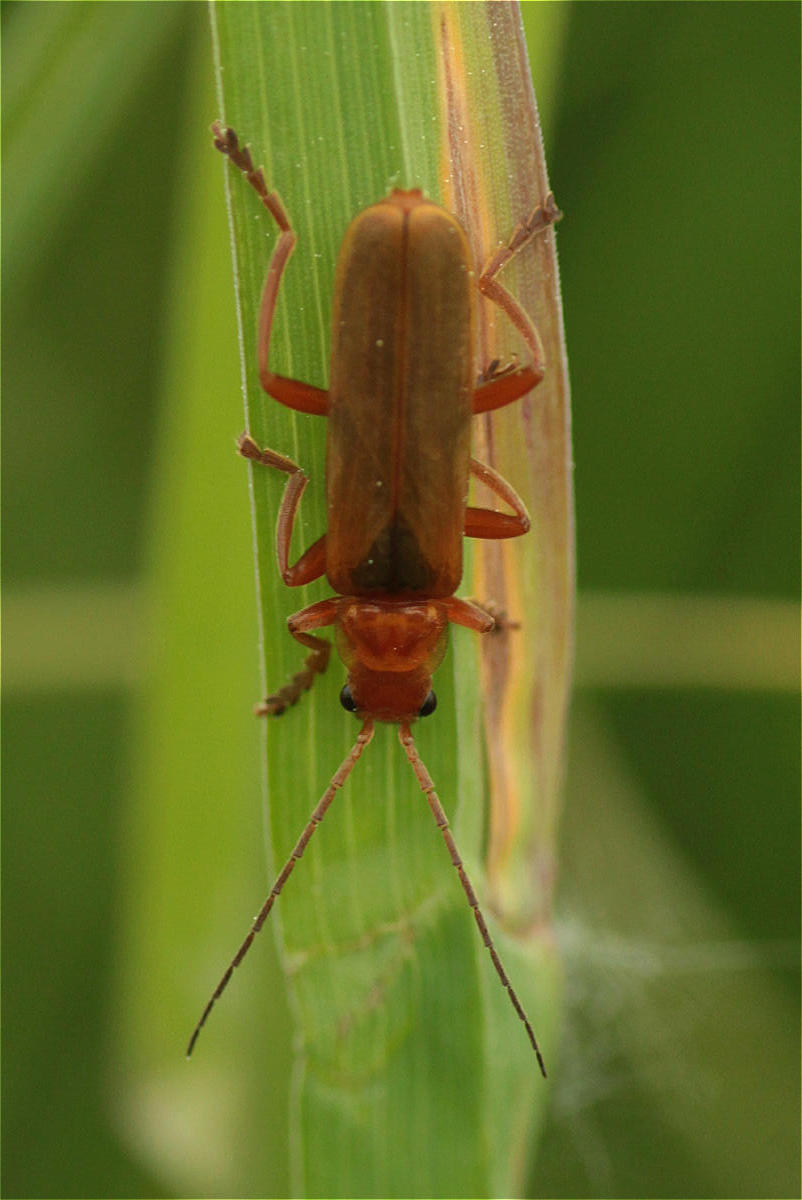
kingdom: Animalia
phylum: Arthropoda
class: Insecta
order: Coleoptera
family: Cantharidae
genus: Cantharis
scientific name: Cantharis rufa
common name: Red-spotted soldier beetle
